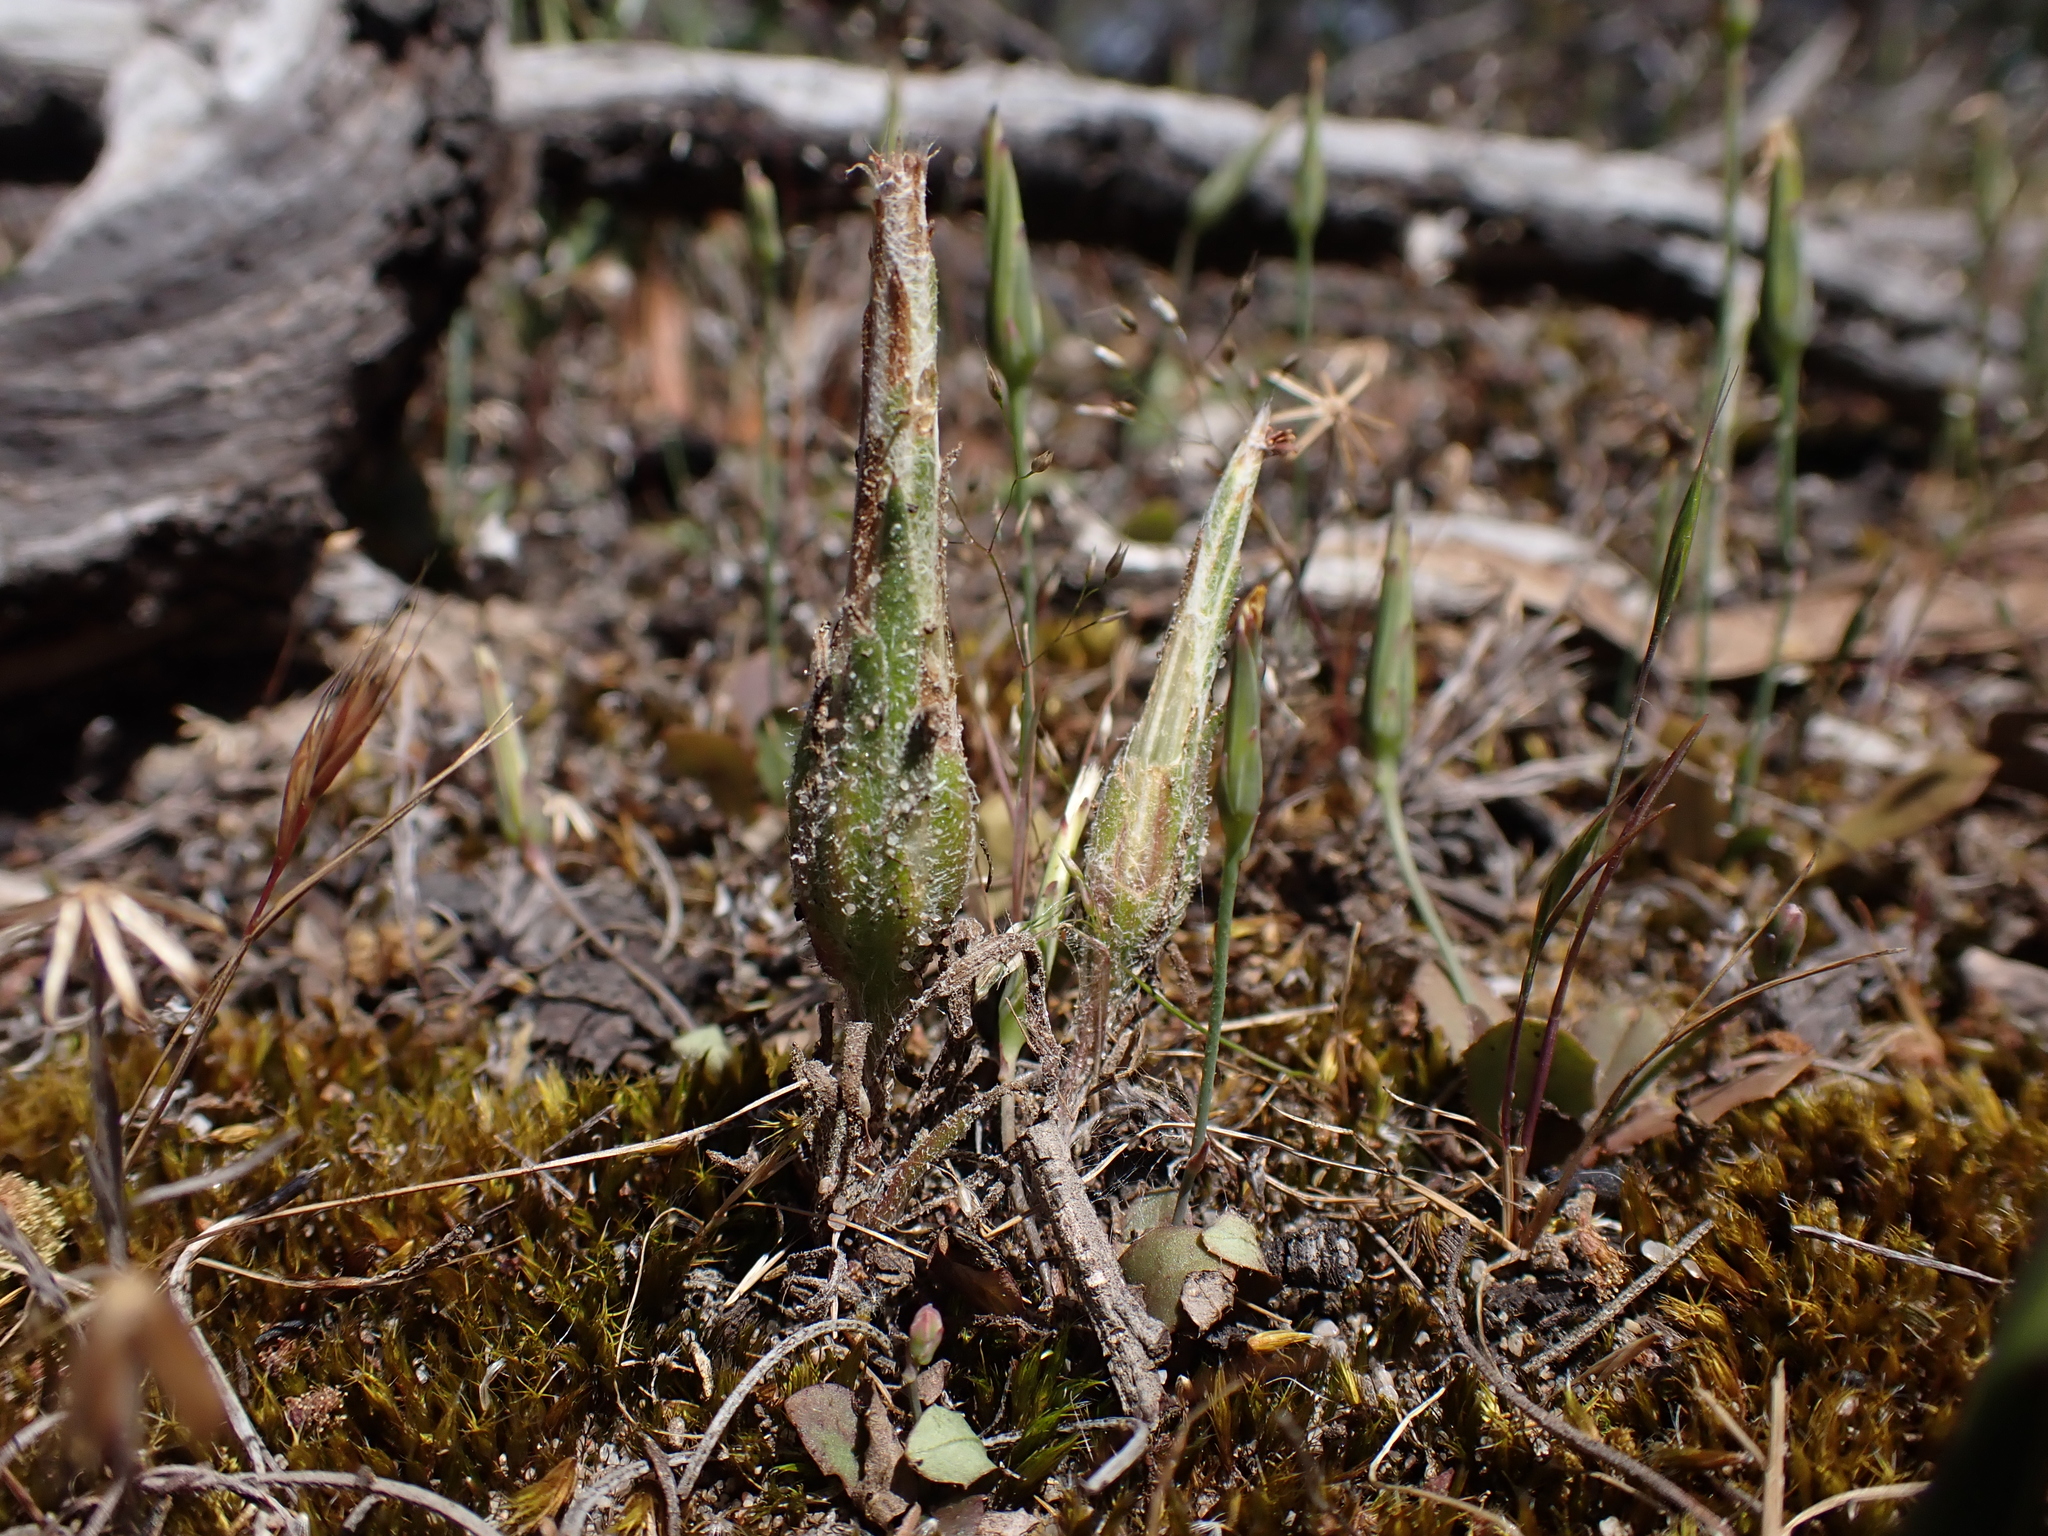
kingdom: Plantae
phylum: Tracheophyta
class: Magnoliopsida
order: Asterales
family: Asteraceae
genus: Podotheca
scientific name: Podotheca angustifolia
